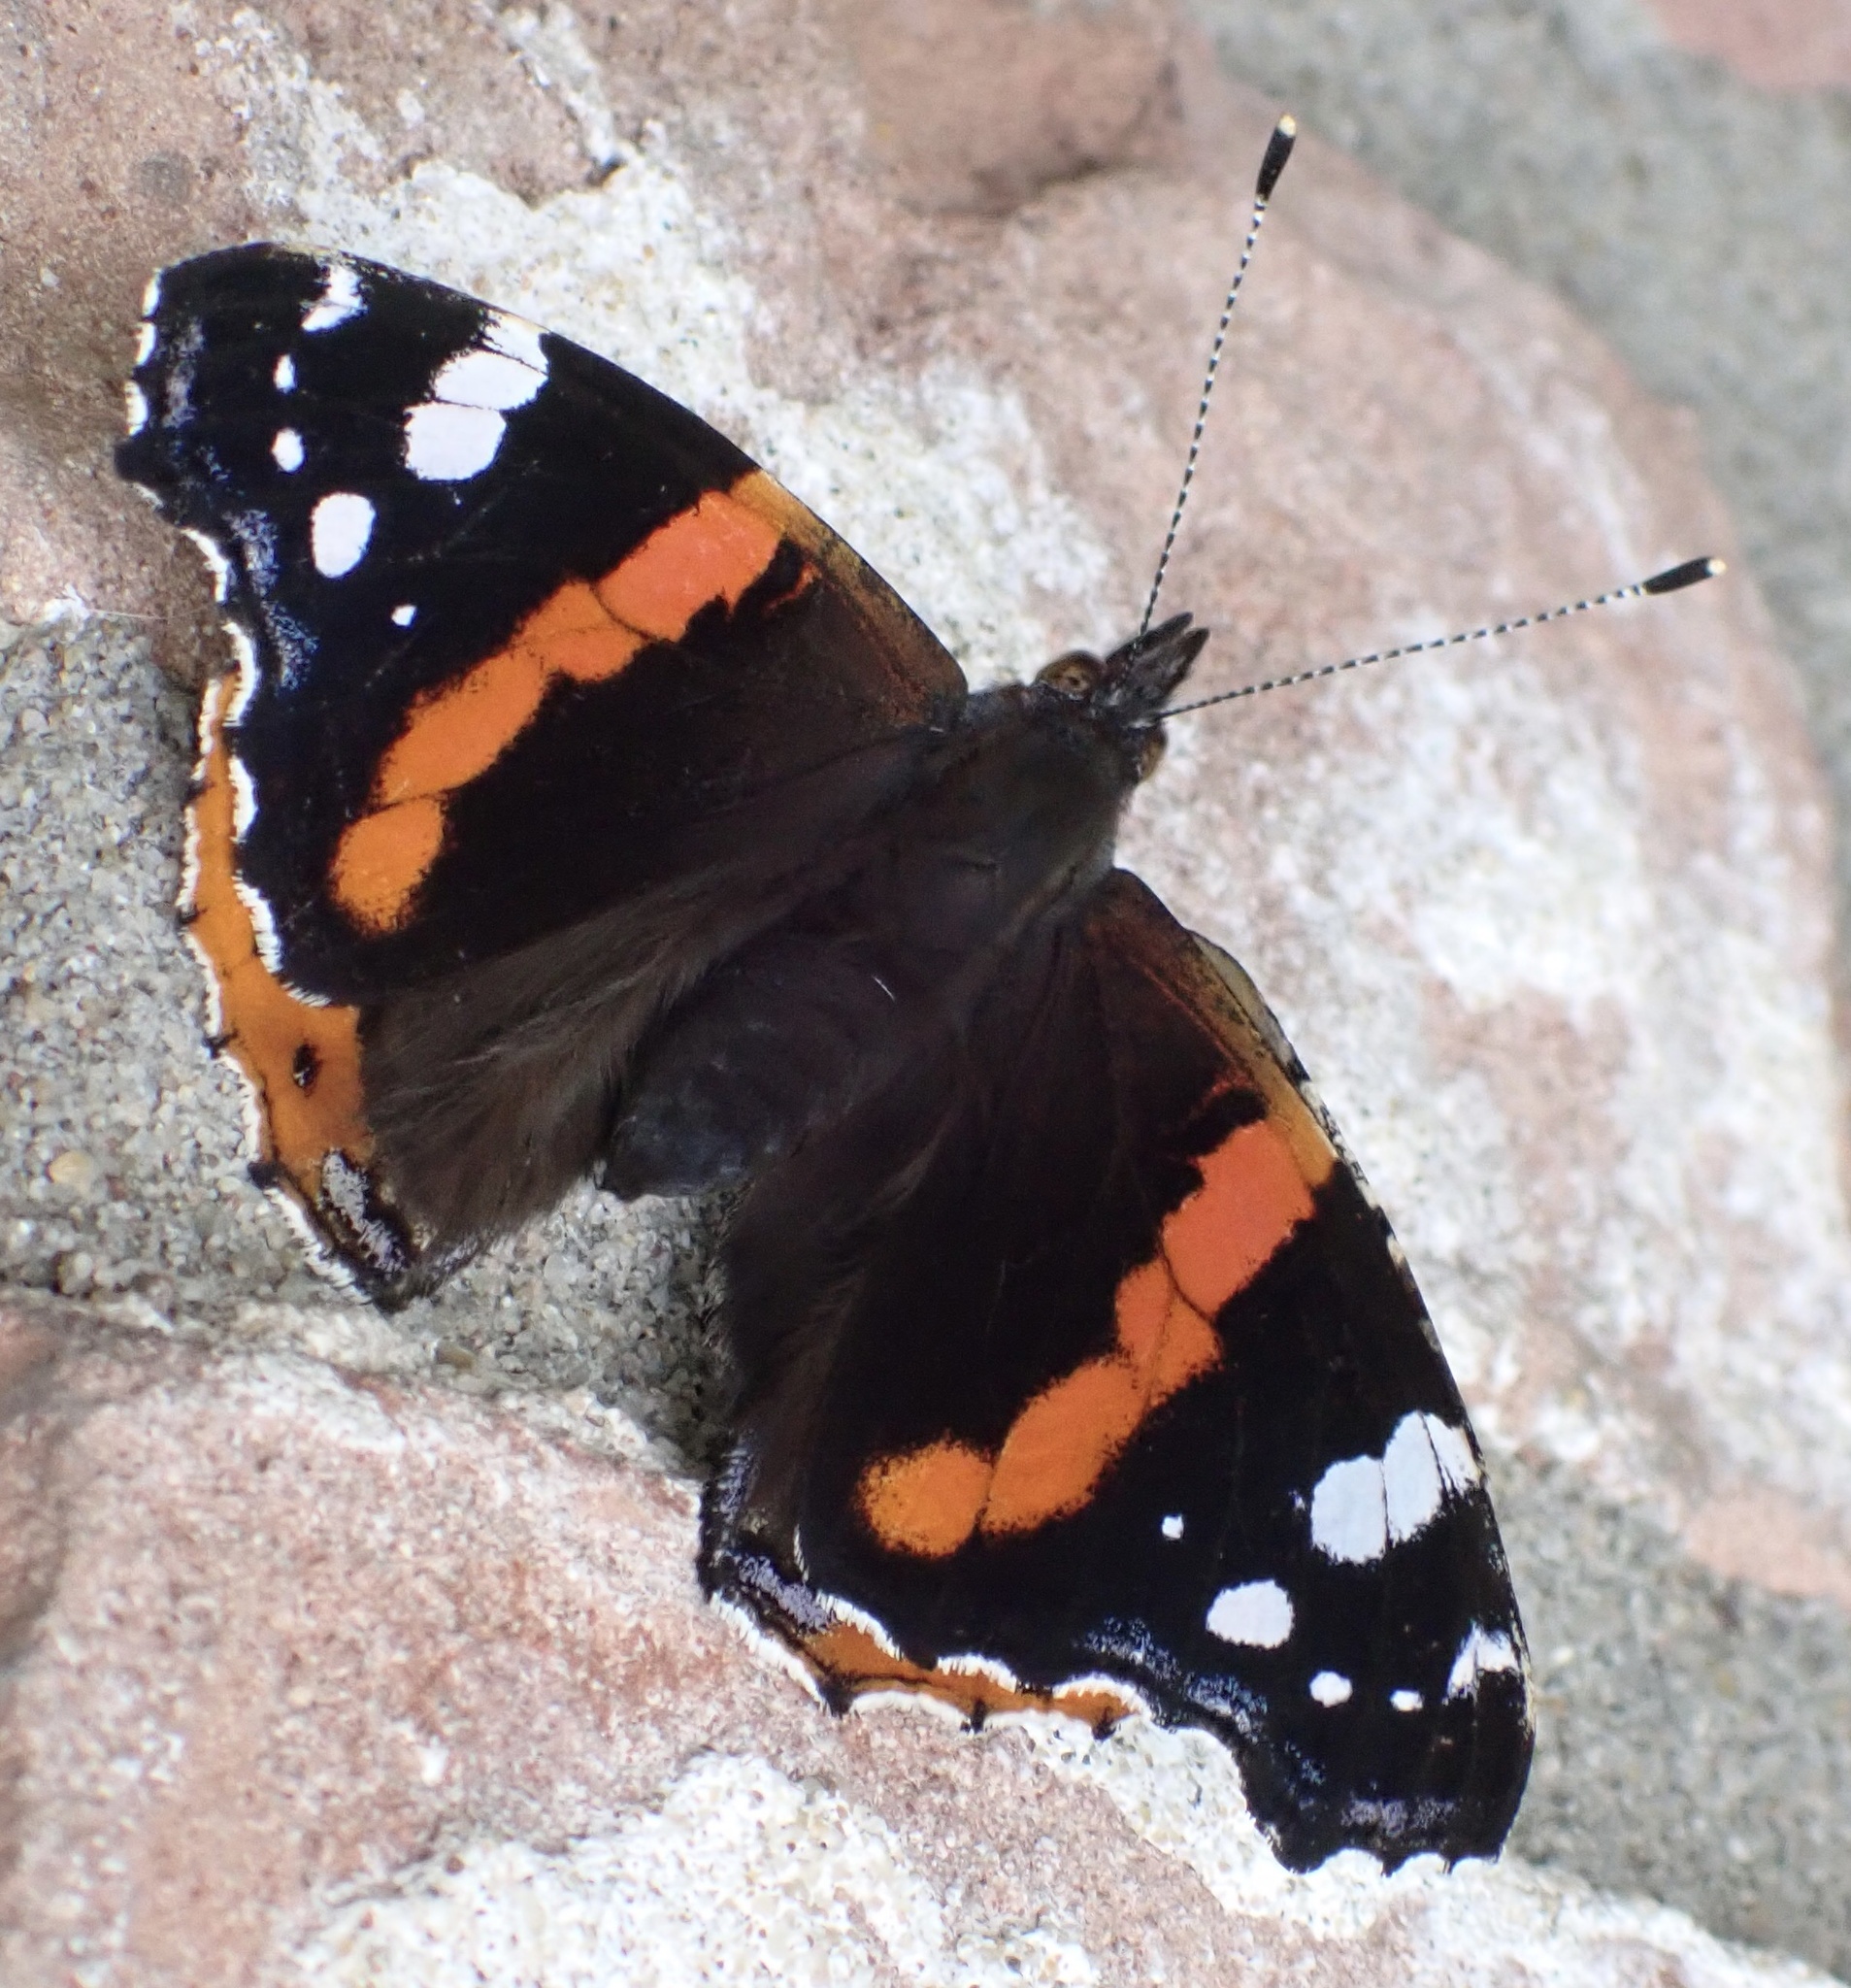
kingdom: Animalia
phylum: Arthropoda
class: Insecta
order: Lepidoptera
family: Nymphalidae
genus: Vanessa
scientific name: Vanessa atalanta
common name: Red admiral
